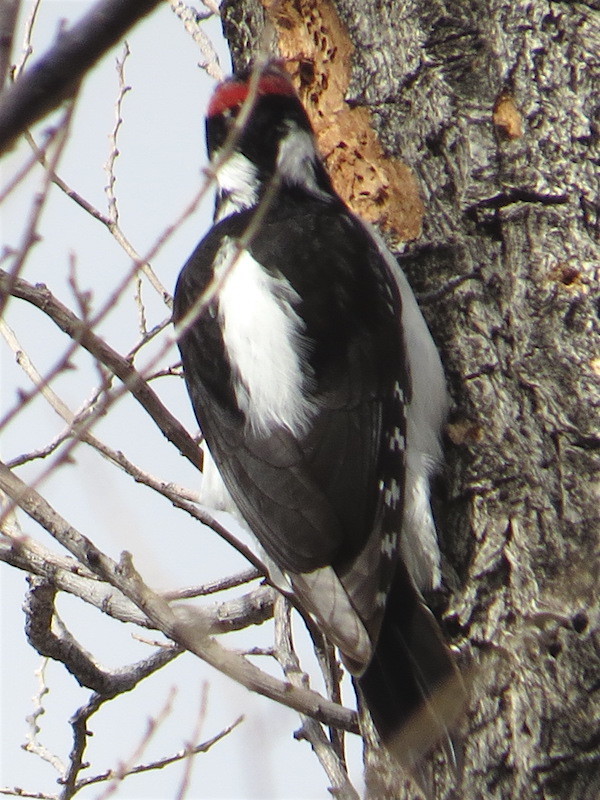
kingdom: Animalia
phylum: Chordata
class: Aves
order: Piciformes
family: Picidae
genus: Leuconotopicus
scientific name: Leuconotopicus villosus
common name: Hairy woodpecker
